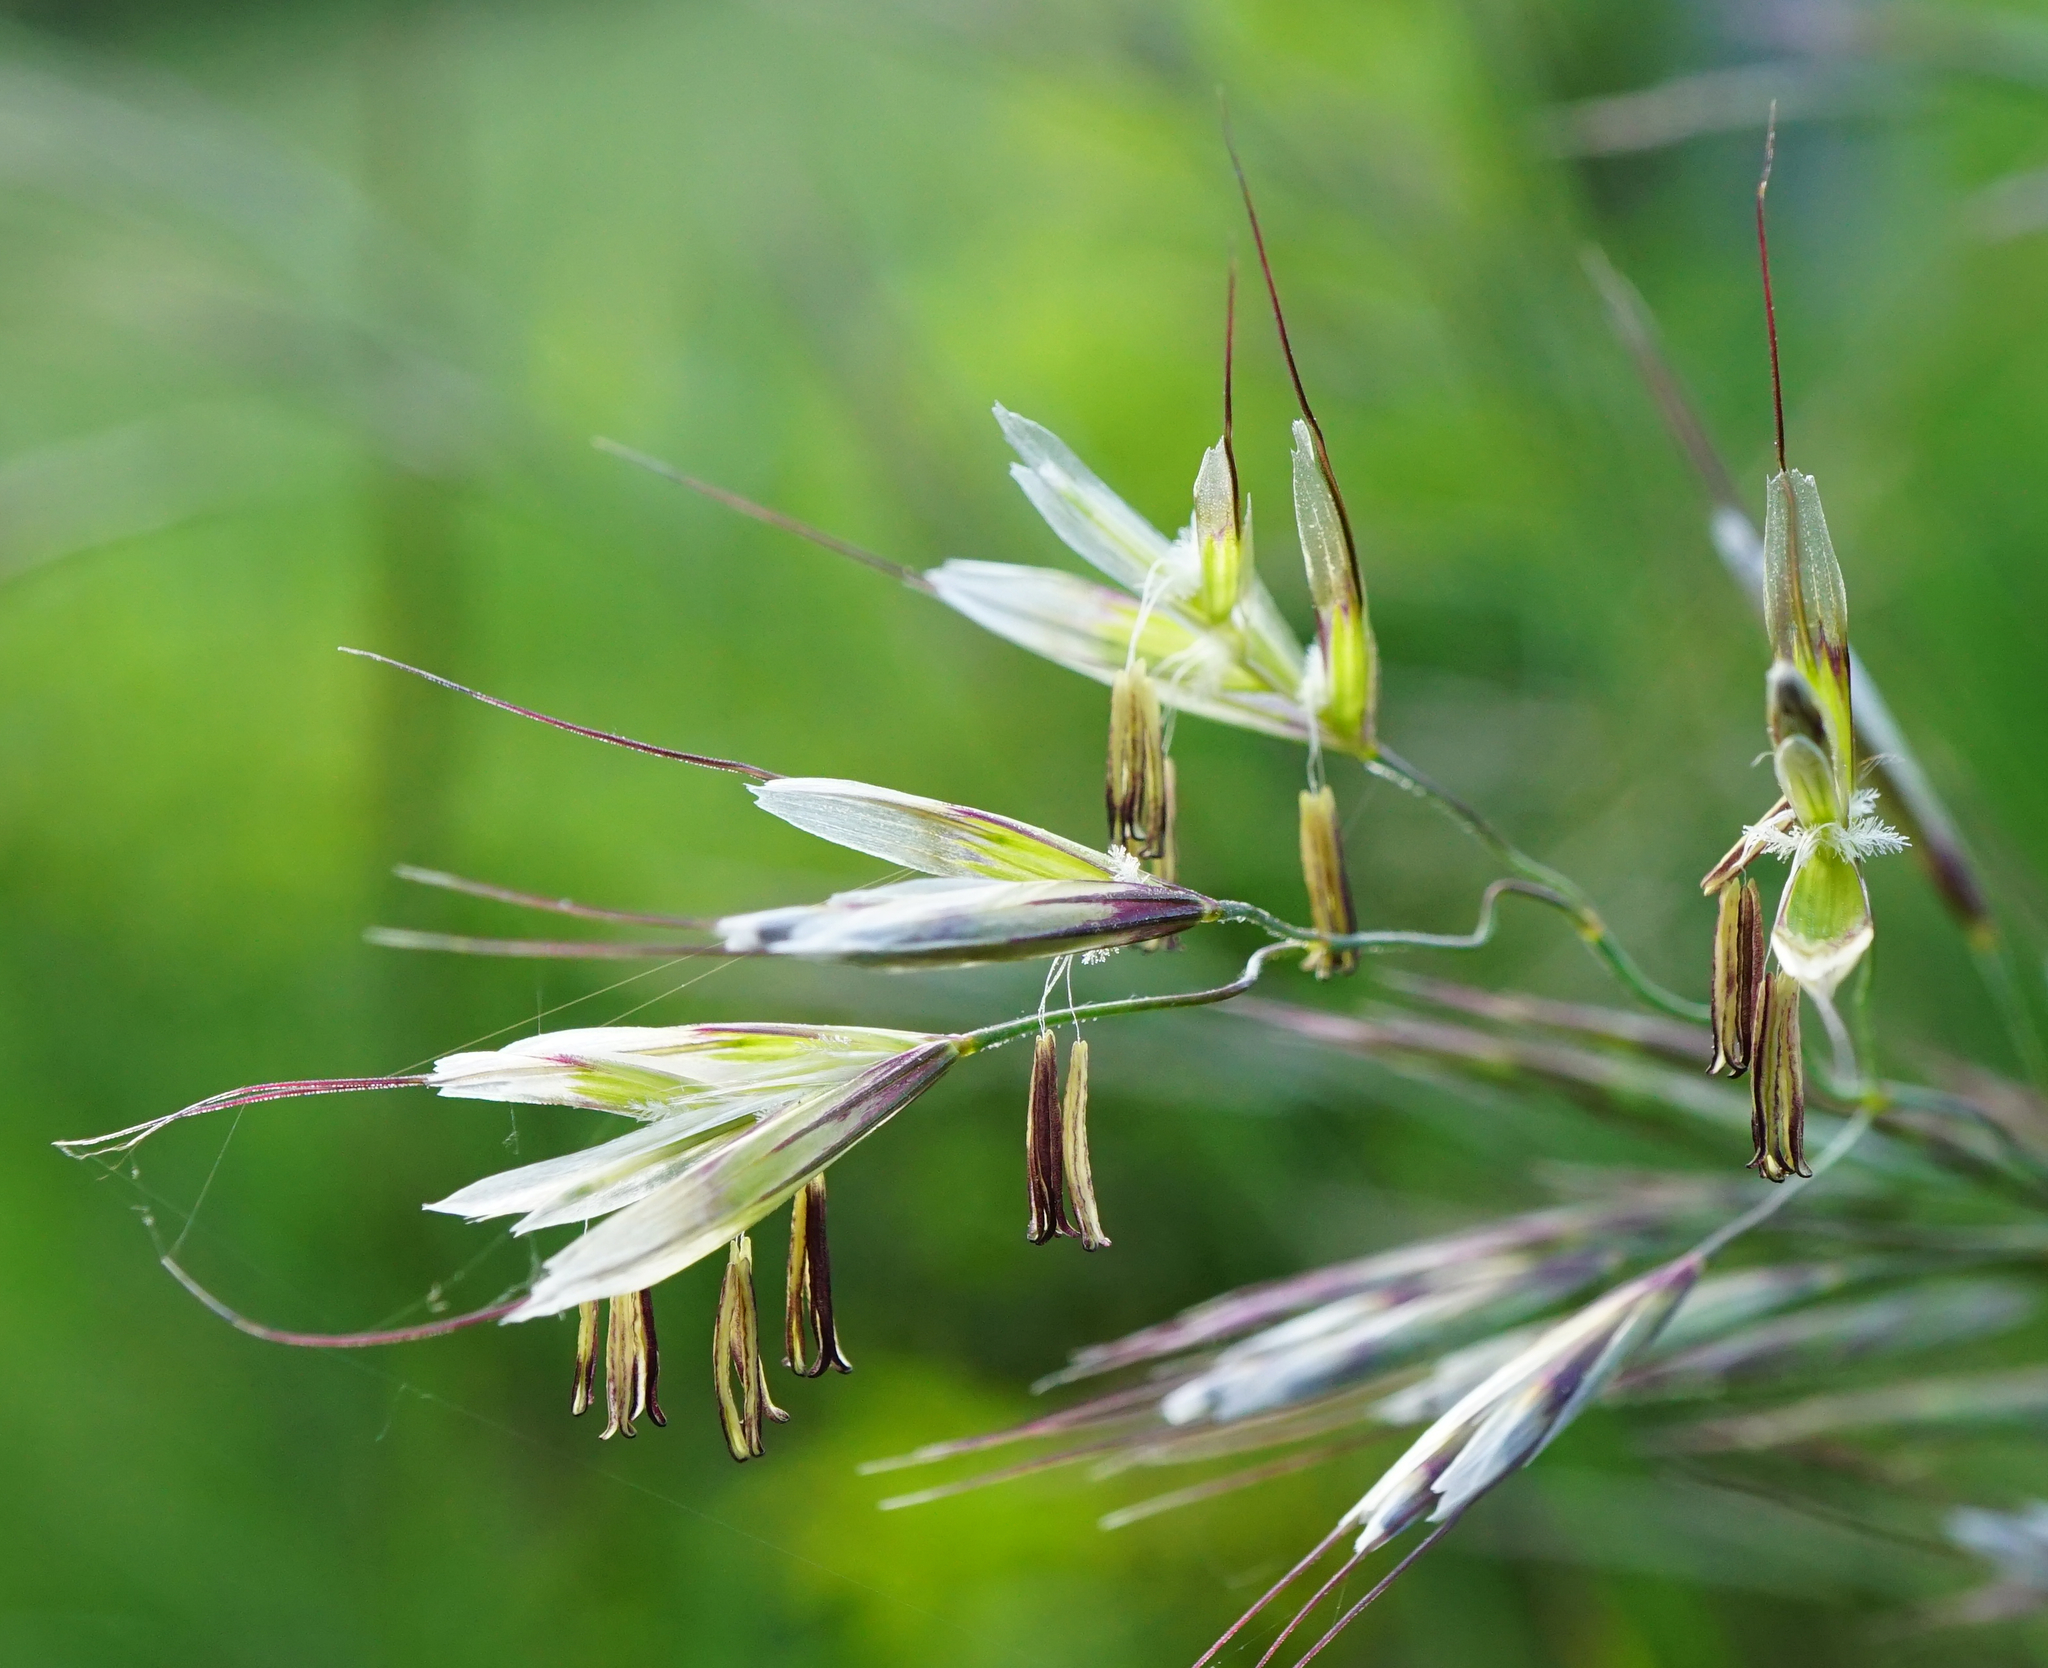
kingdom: Plantae
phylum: Tracheophyta
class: Liliopsida
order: Poales
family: Poaceae
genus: Avenula
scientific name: Avenula pubescens
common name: Downy alpine oatgrass
